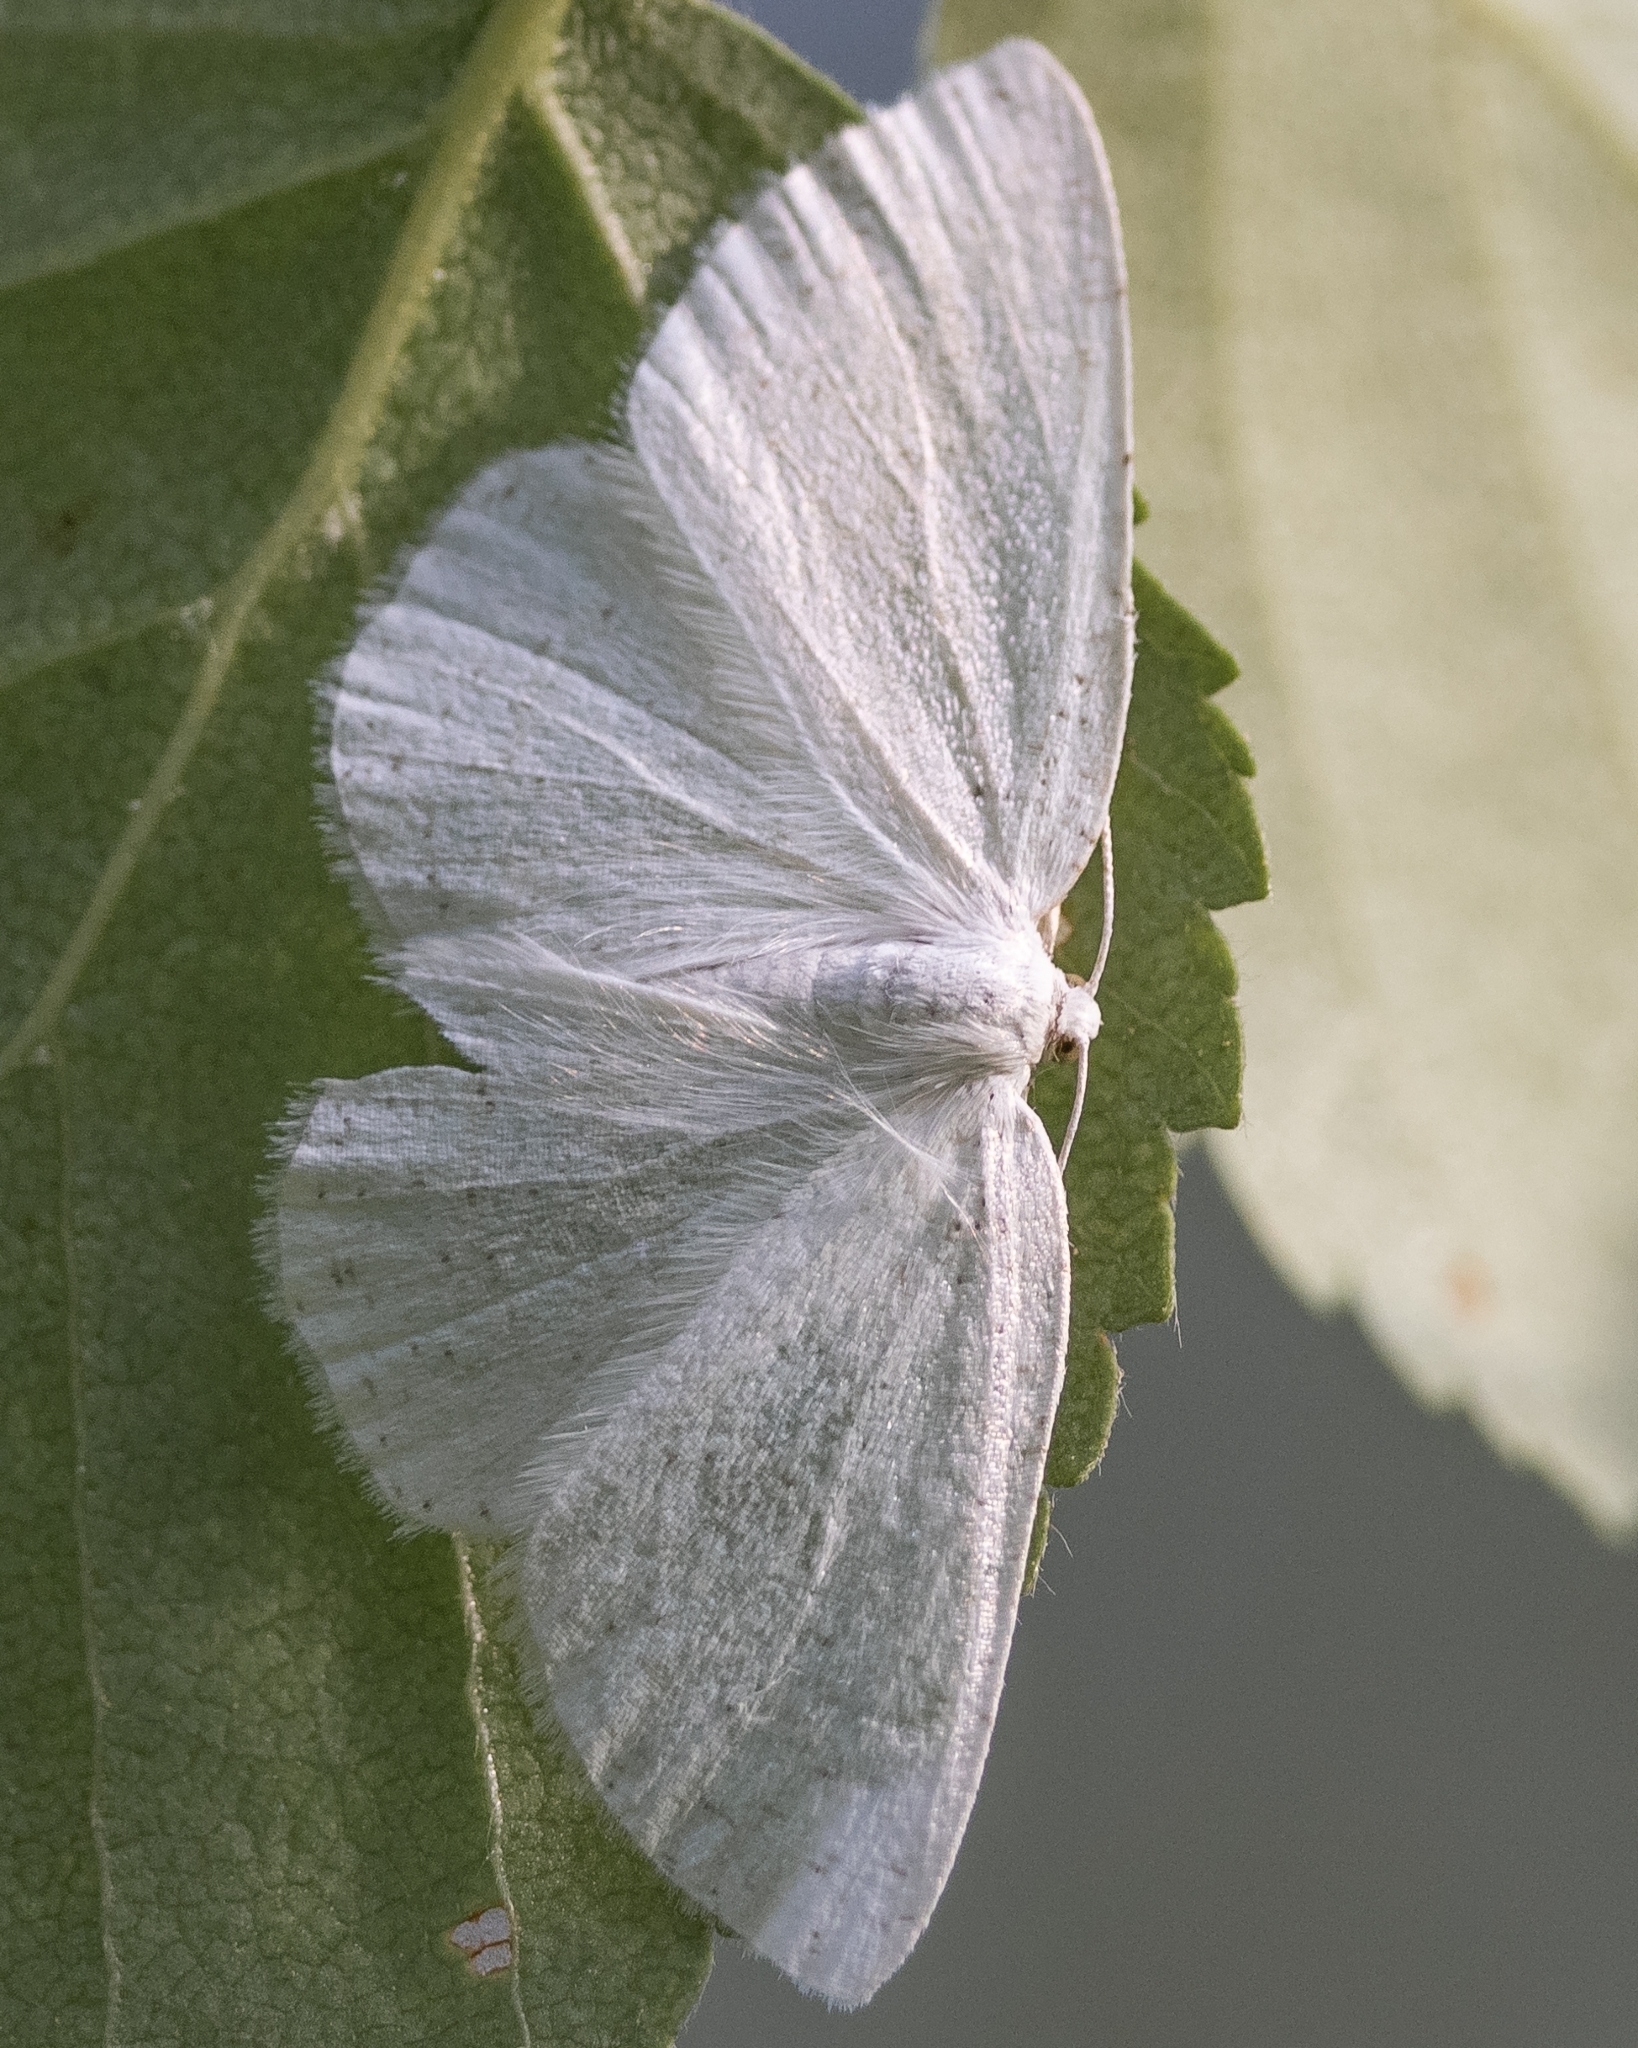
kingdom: Animalia
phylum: Arthropoda
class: Insecta
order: Lepidoptera
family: Geometridae
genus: Cabera
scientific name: Cabera pusaria
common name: Common white wave
